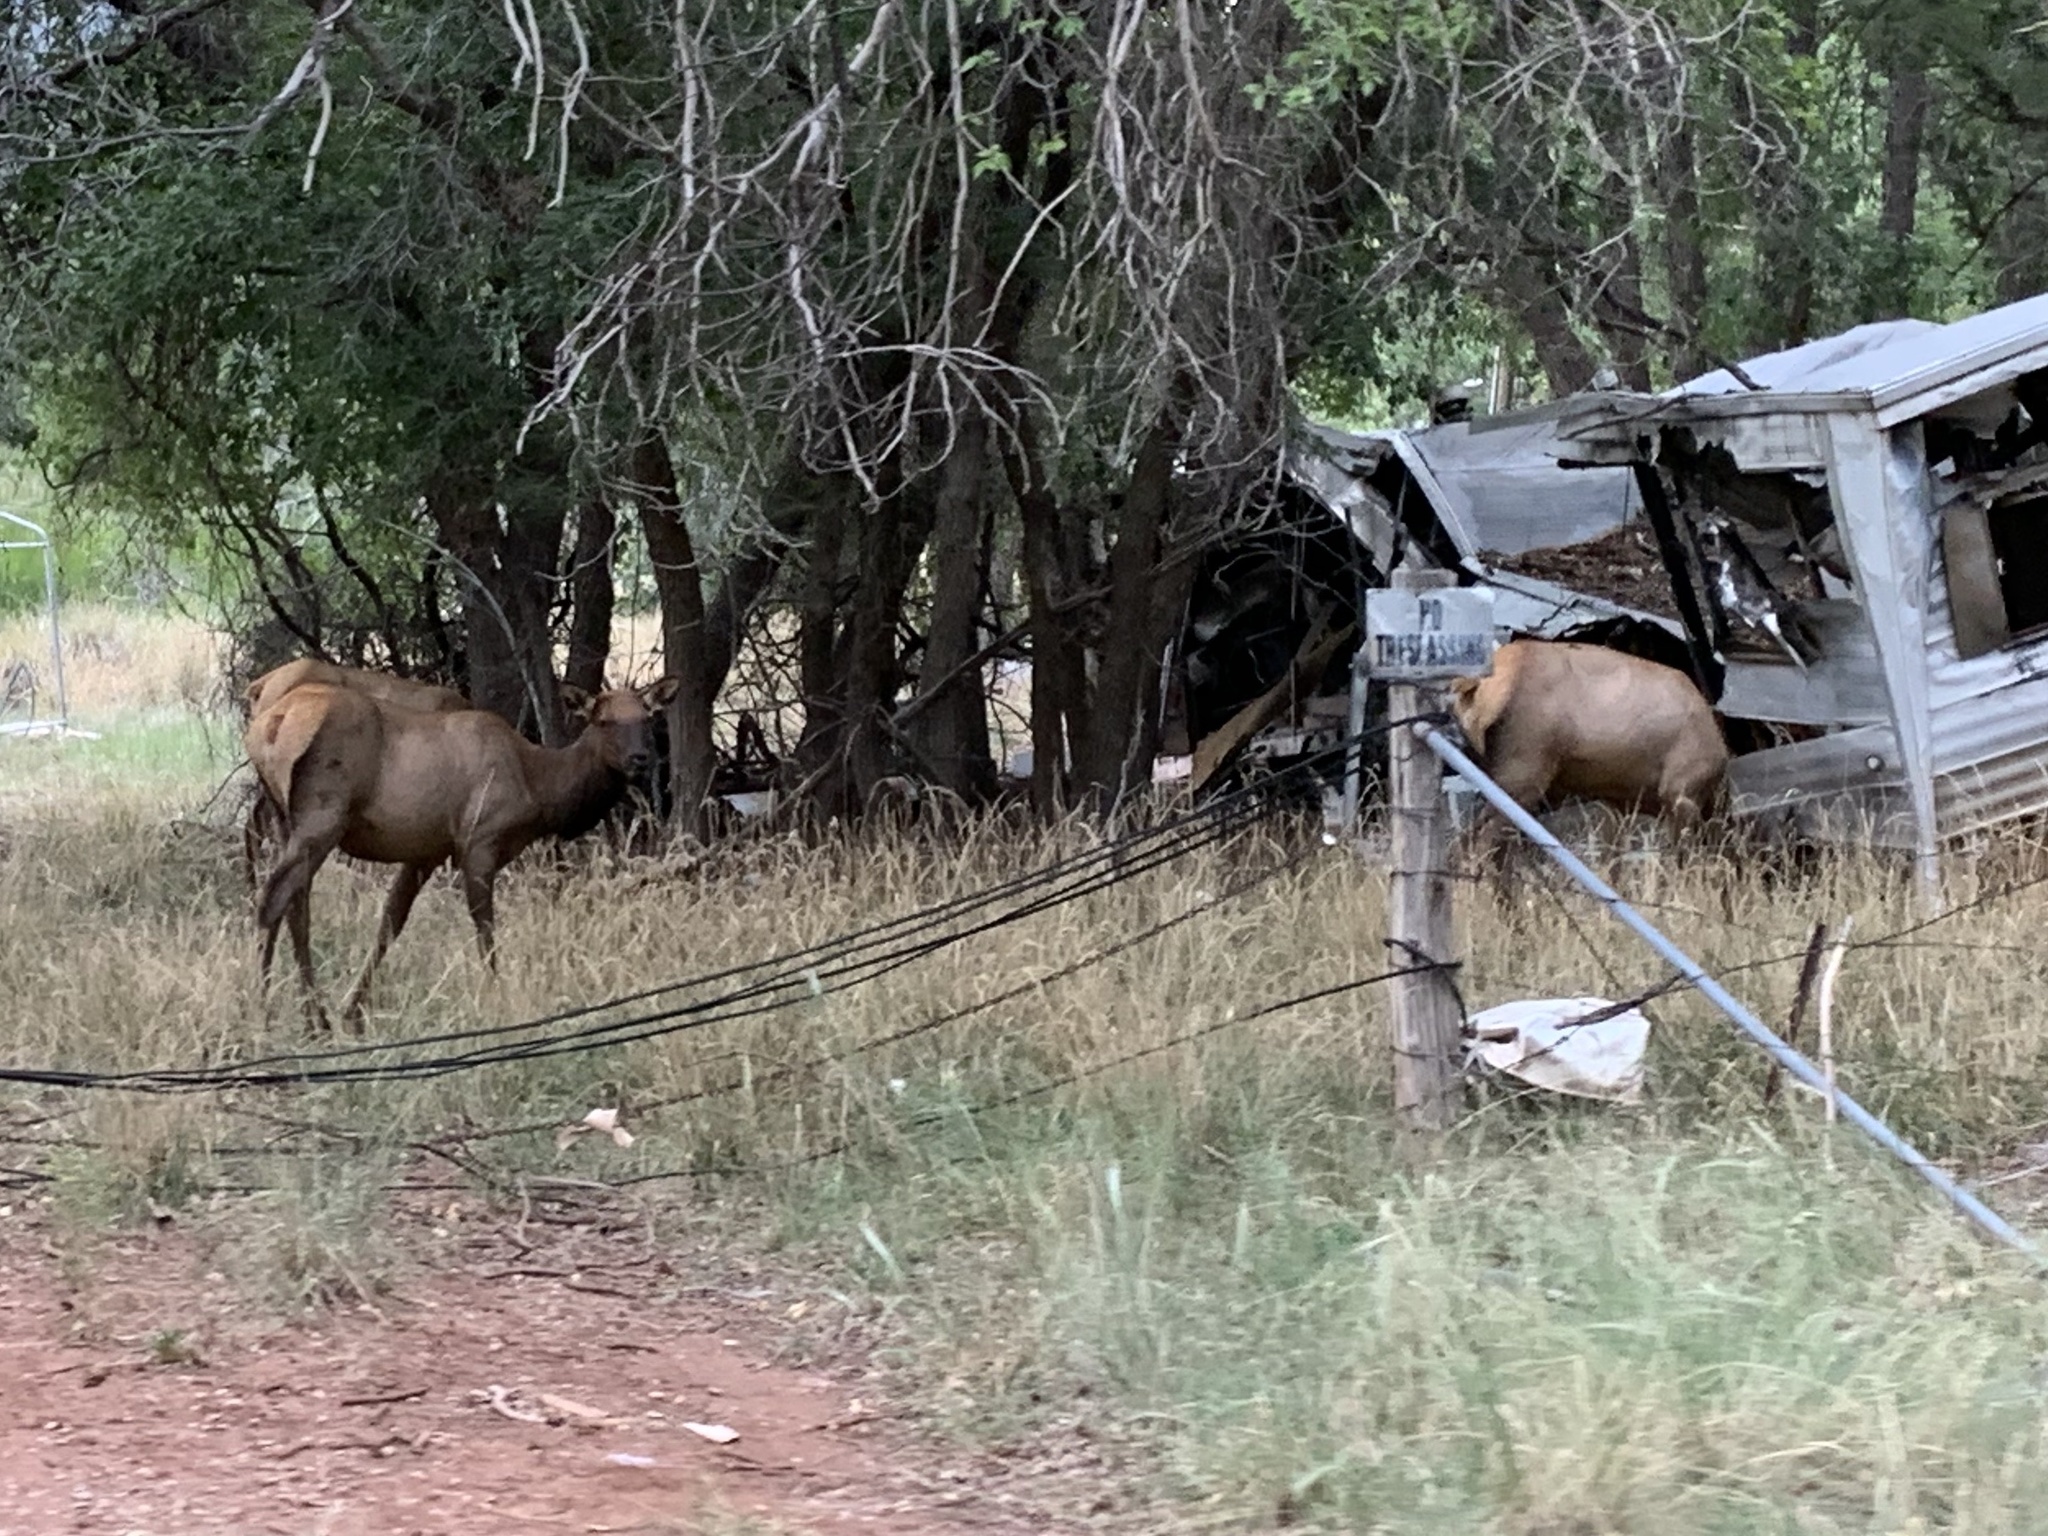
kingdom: Animalia
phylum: Chordata
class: Mammalia
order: Artiodactyla
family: Cervidae
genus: Cervus
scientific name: Cervus elaphus
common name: Red deer
